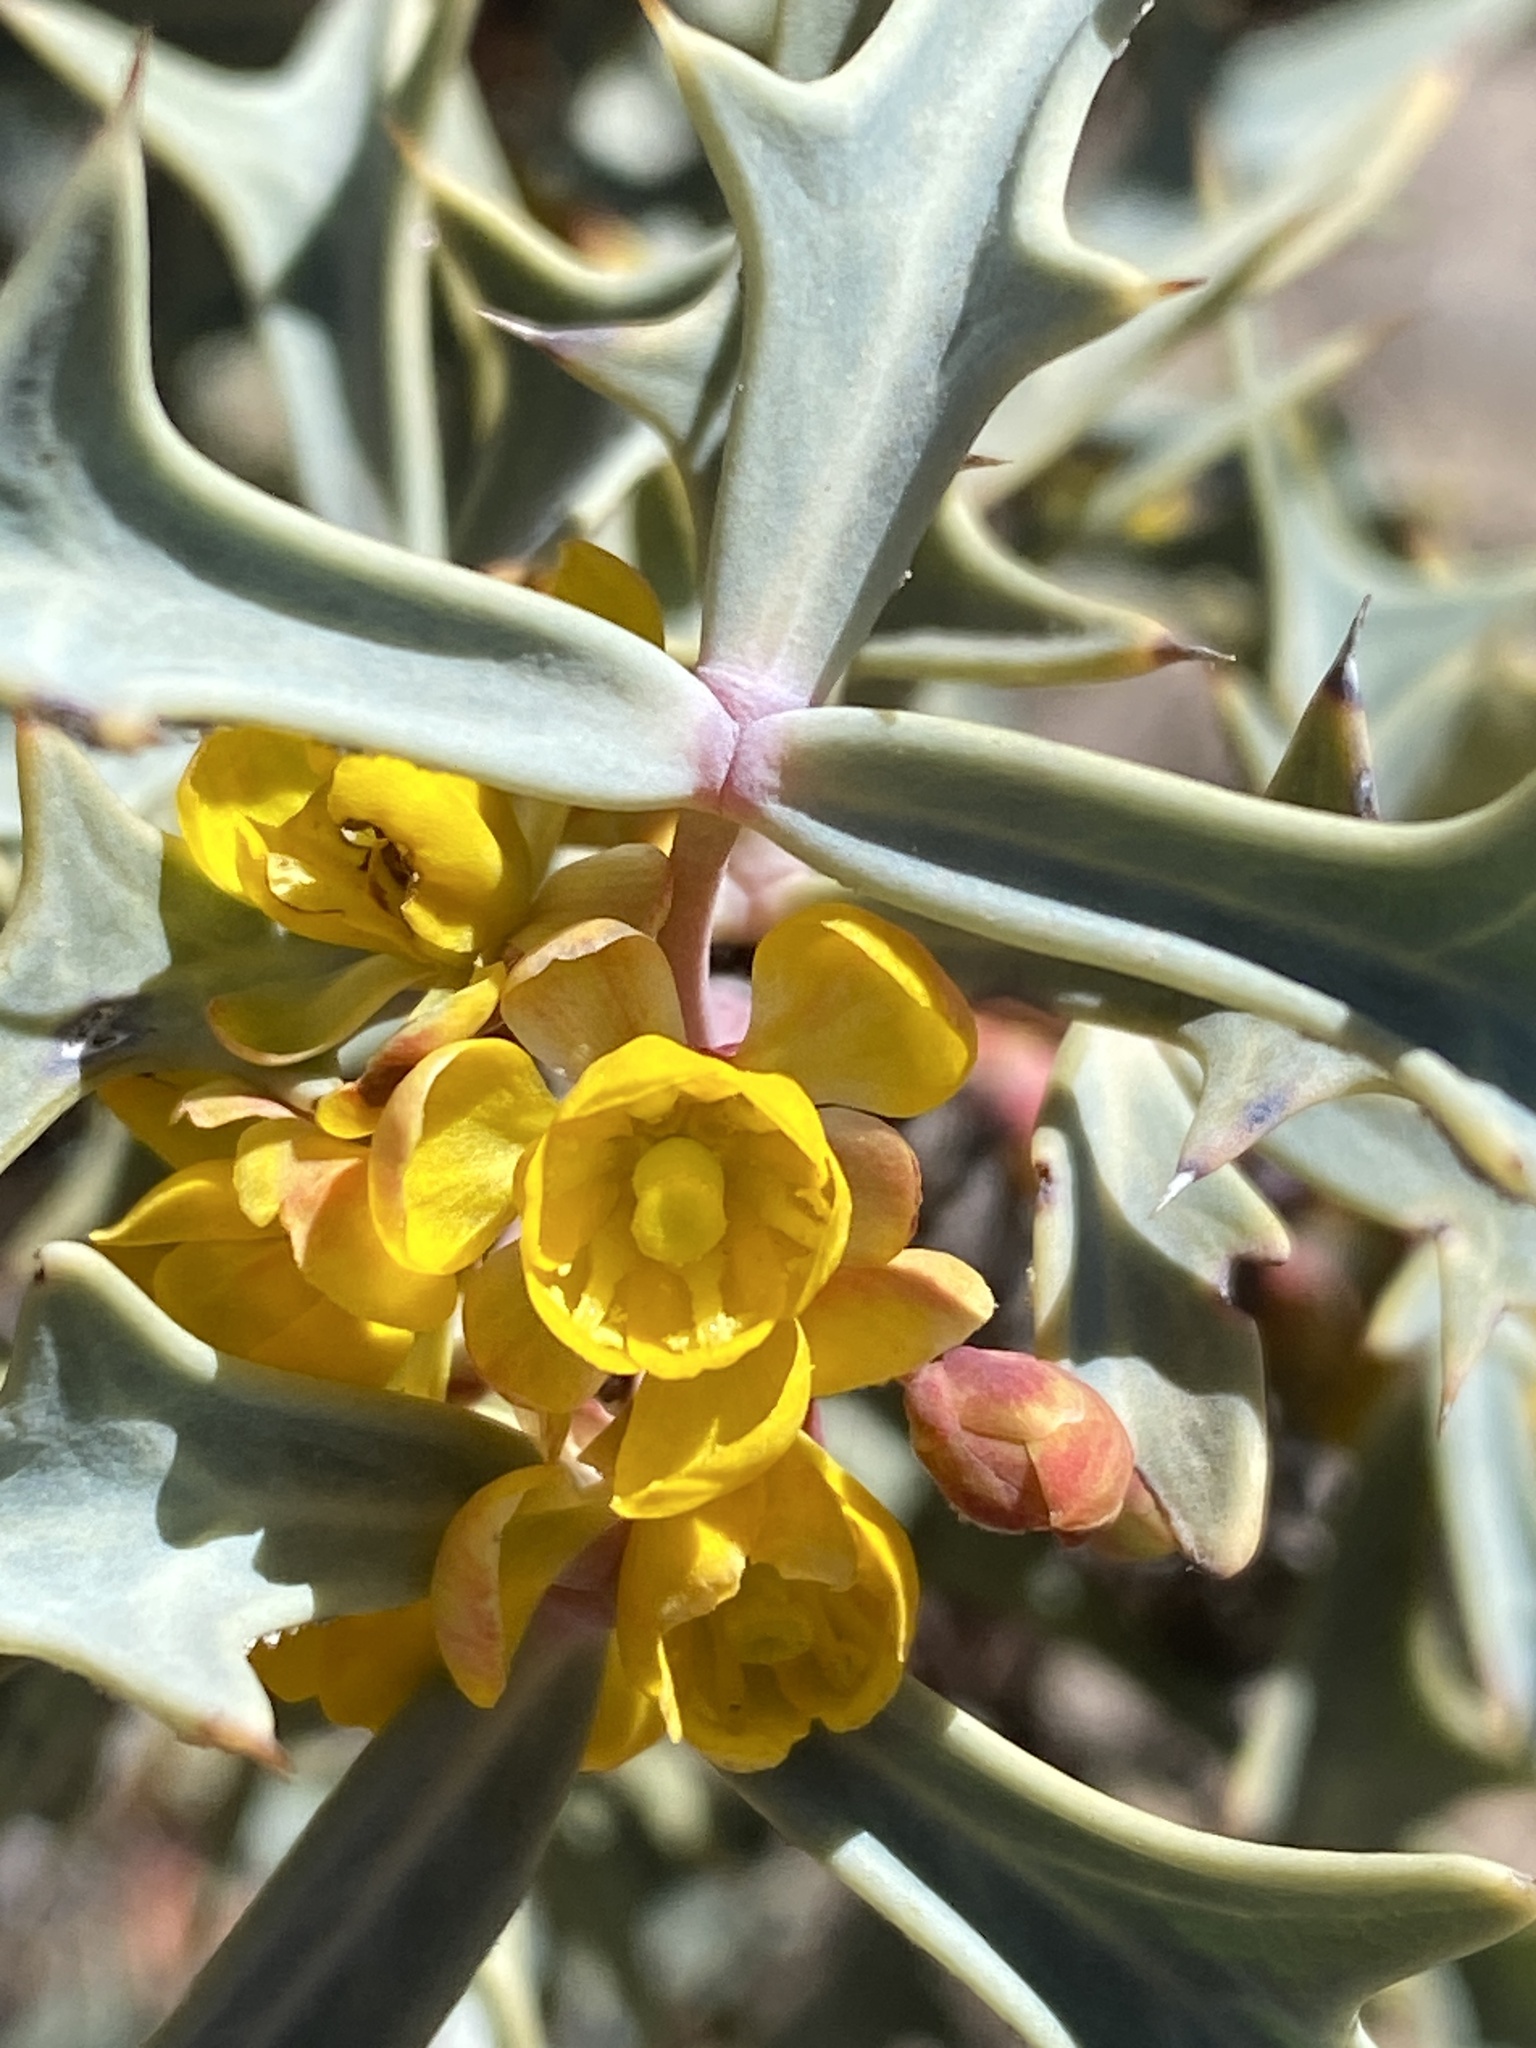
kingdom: Plantae
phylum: Tracheophyta
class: Magnoliopsida
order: Ranunculales
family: Berberidaceae
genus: Alloberberis
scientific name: Alloberberis trifoliolata
